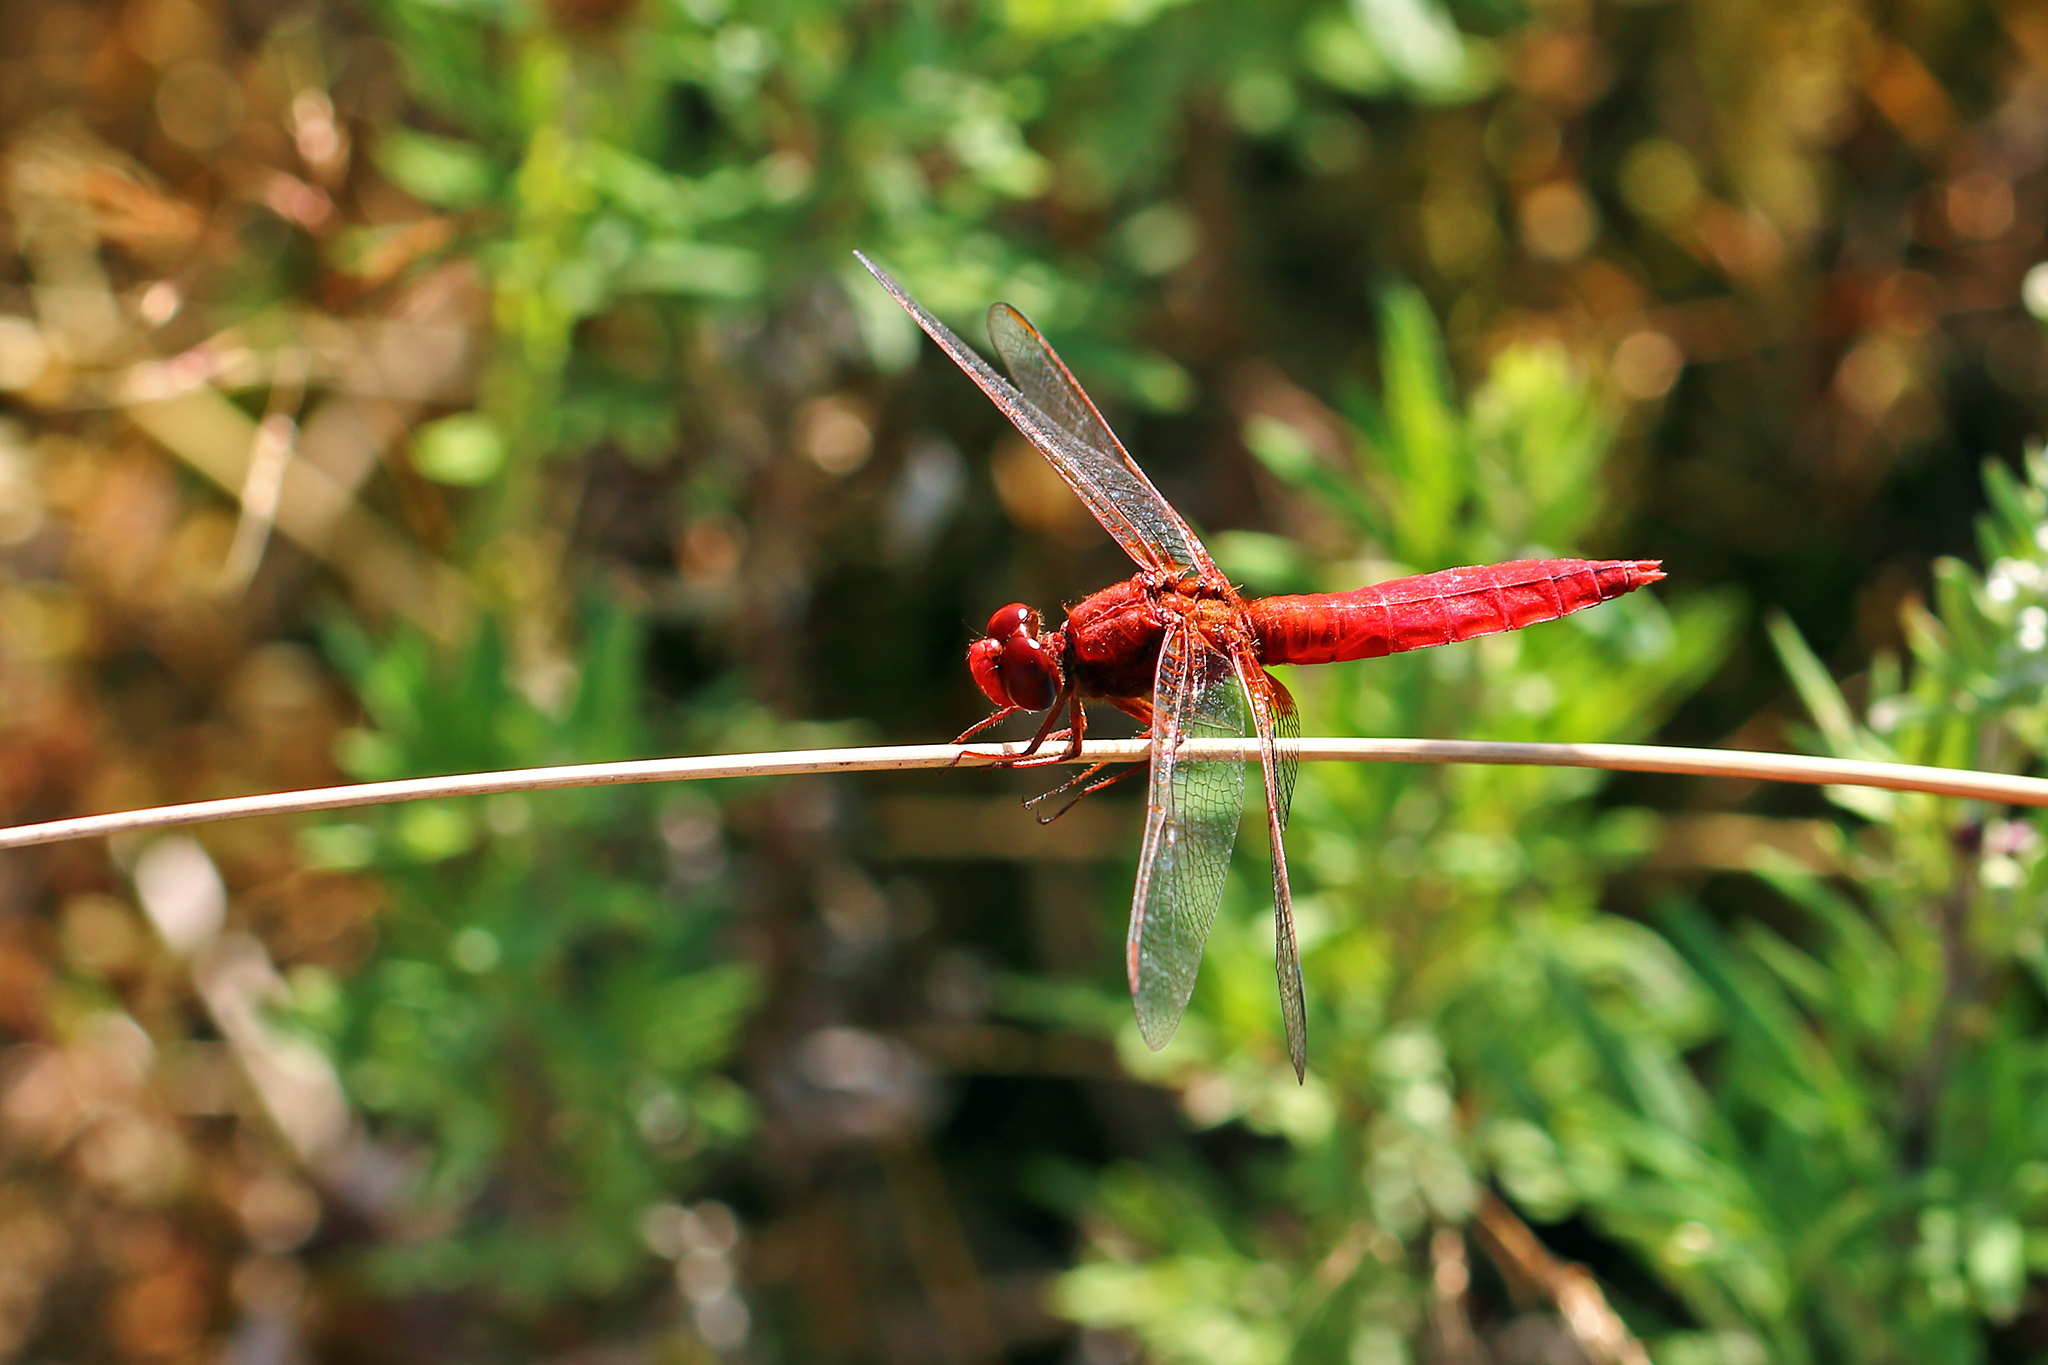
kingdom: Animalia
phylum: Arthropoda
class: Insecta
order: Odonata
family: Libellulidae
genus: Crocothemis
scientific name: Crocothemis erythraea
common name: Scarlet dragonfly
